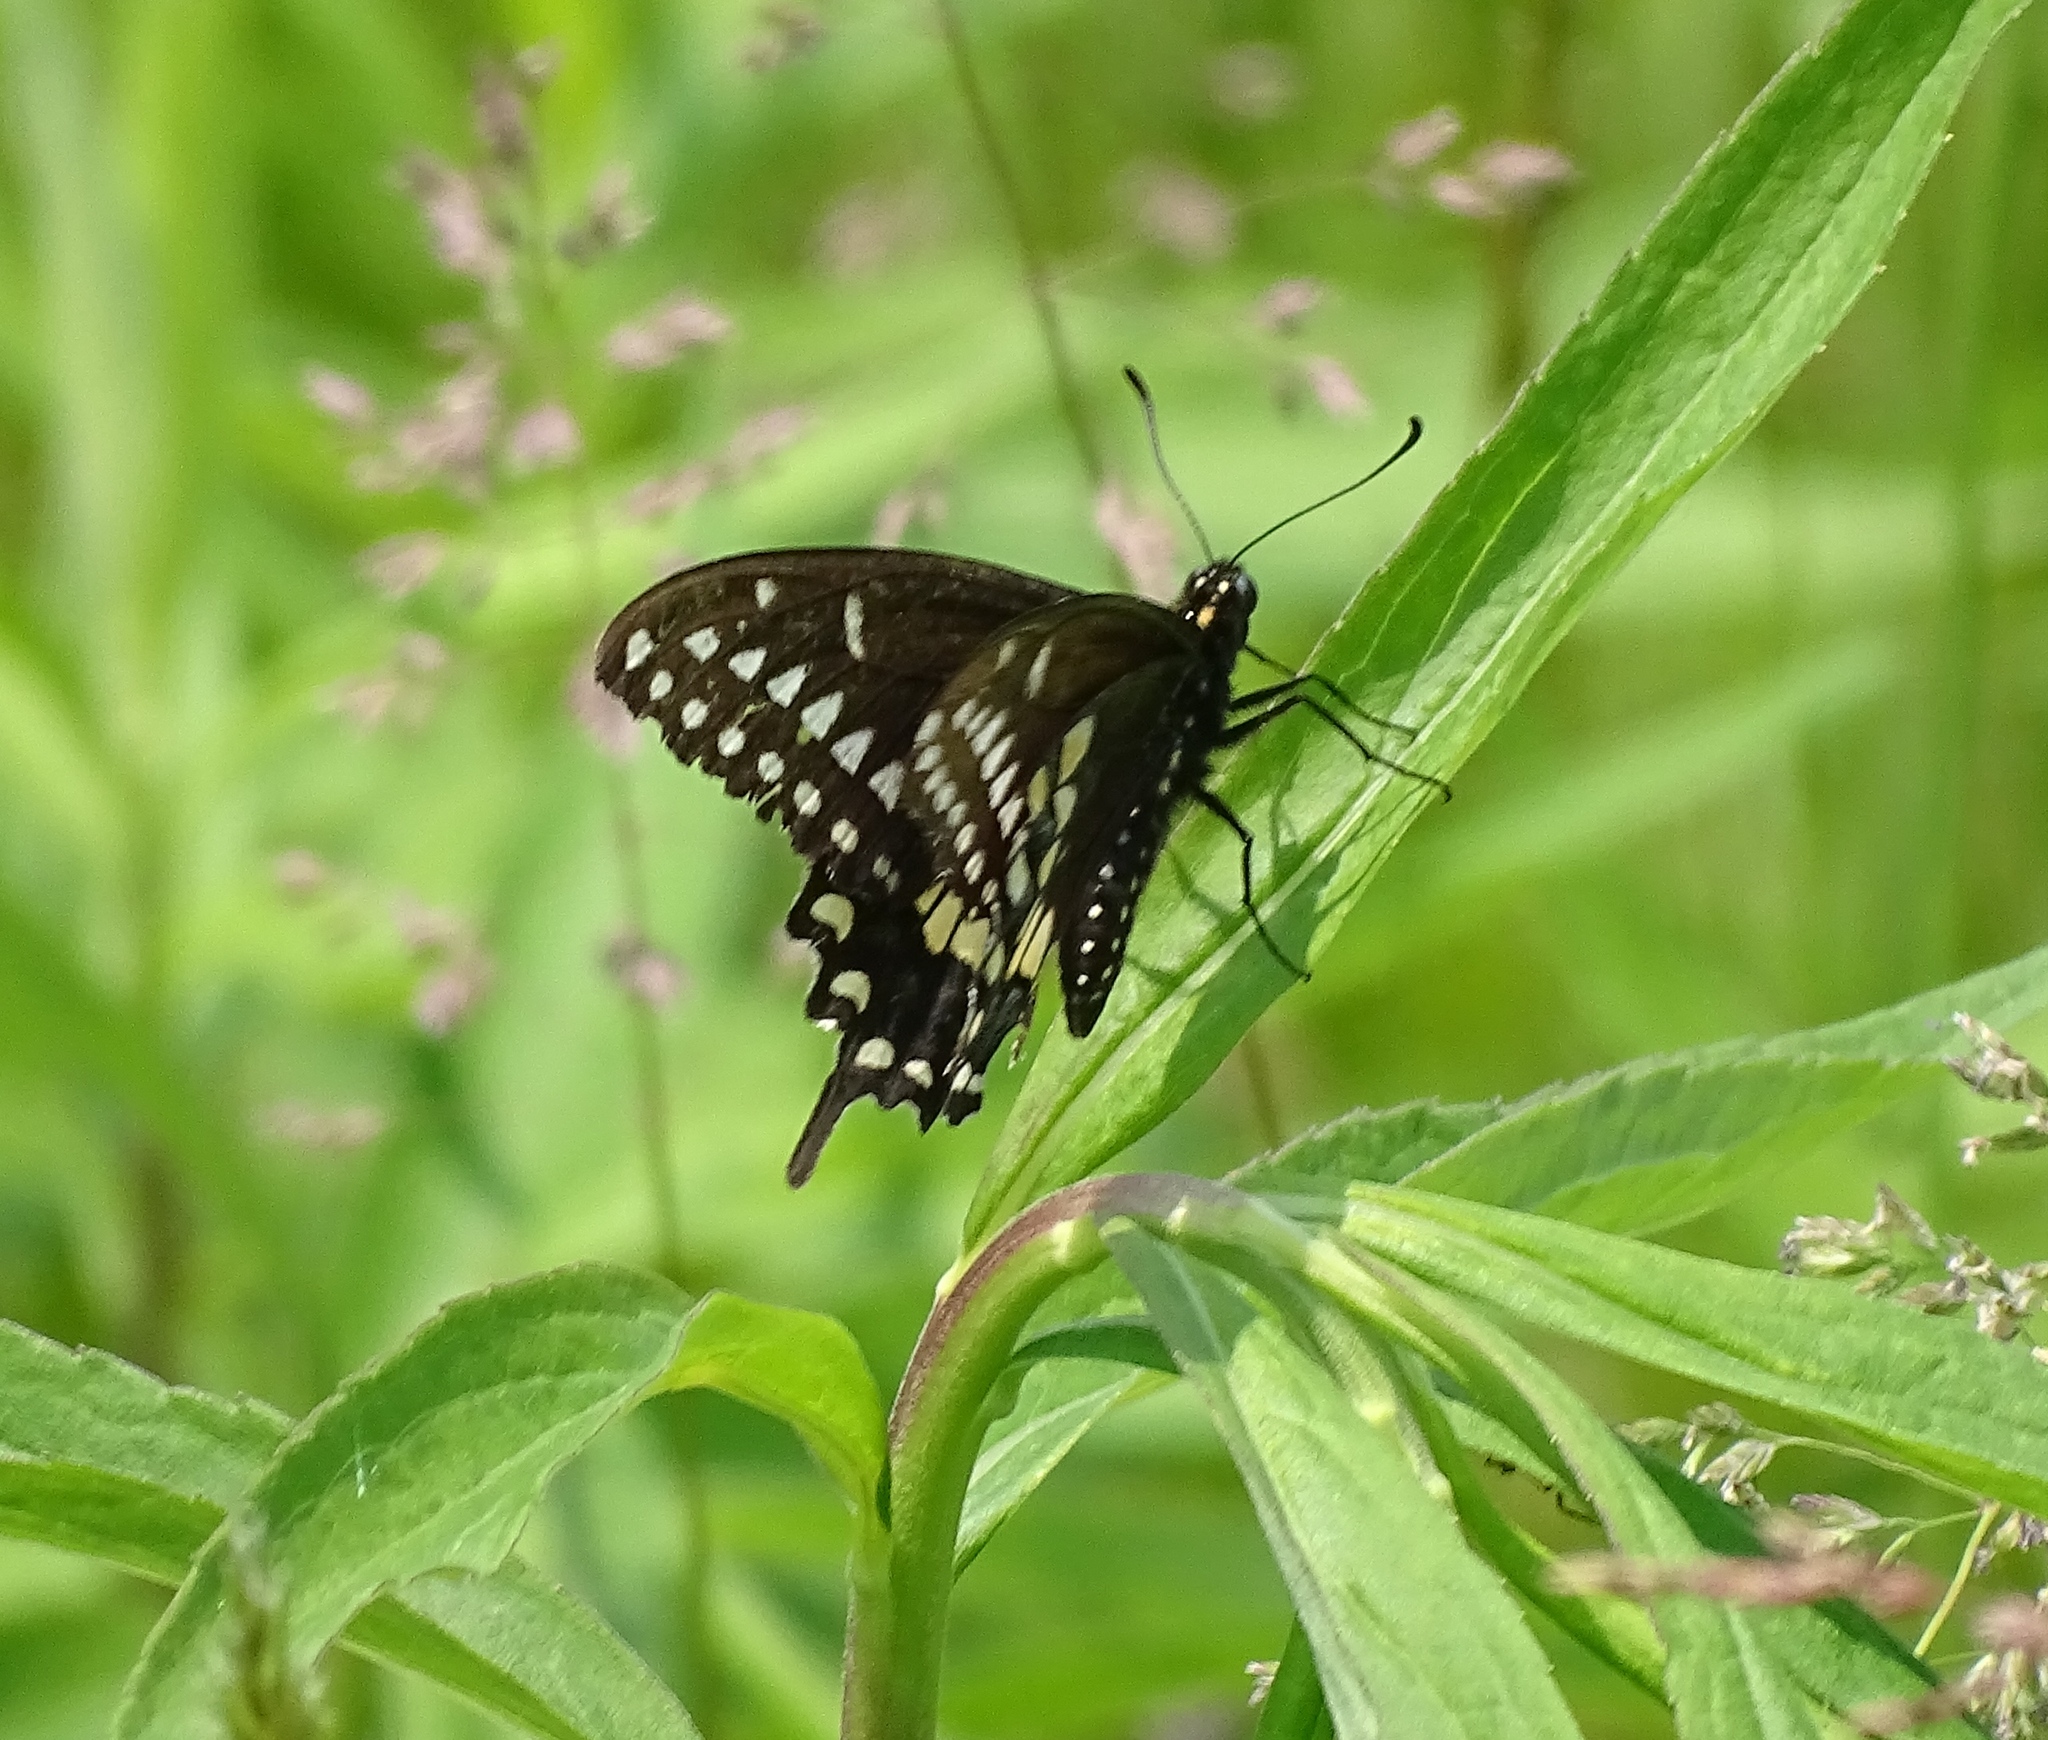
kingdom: Animalia
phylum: Arthropoda
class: Insecta
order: Lepidoptera
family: Papilionidae
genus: Papilio
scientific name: Papilio polyxenes
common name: Black swallowtail
